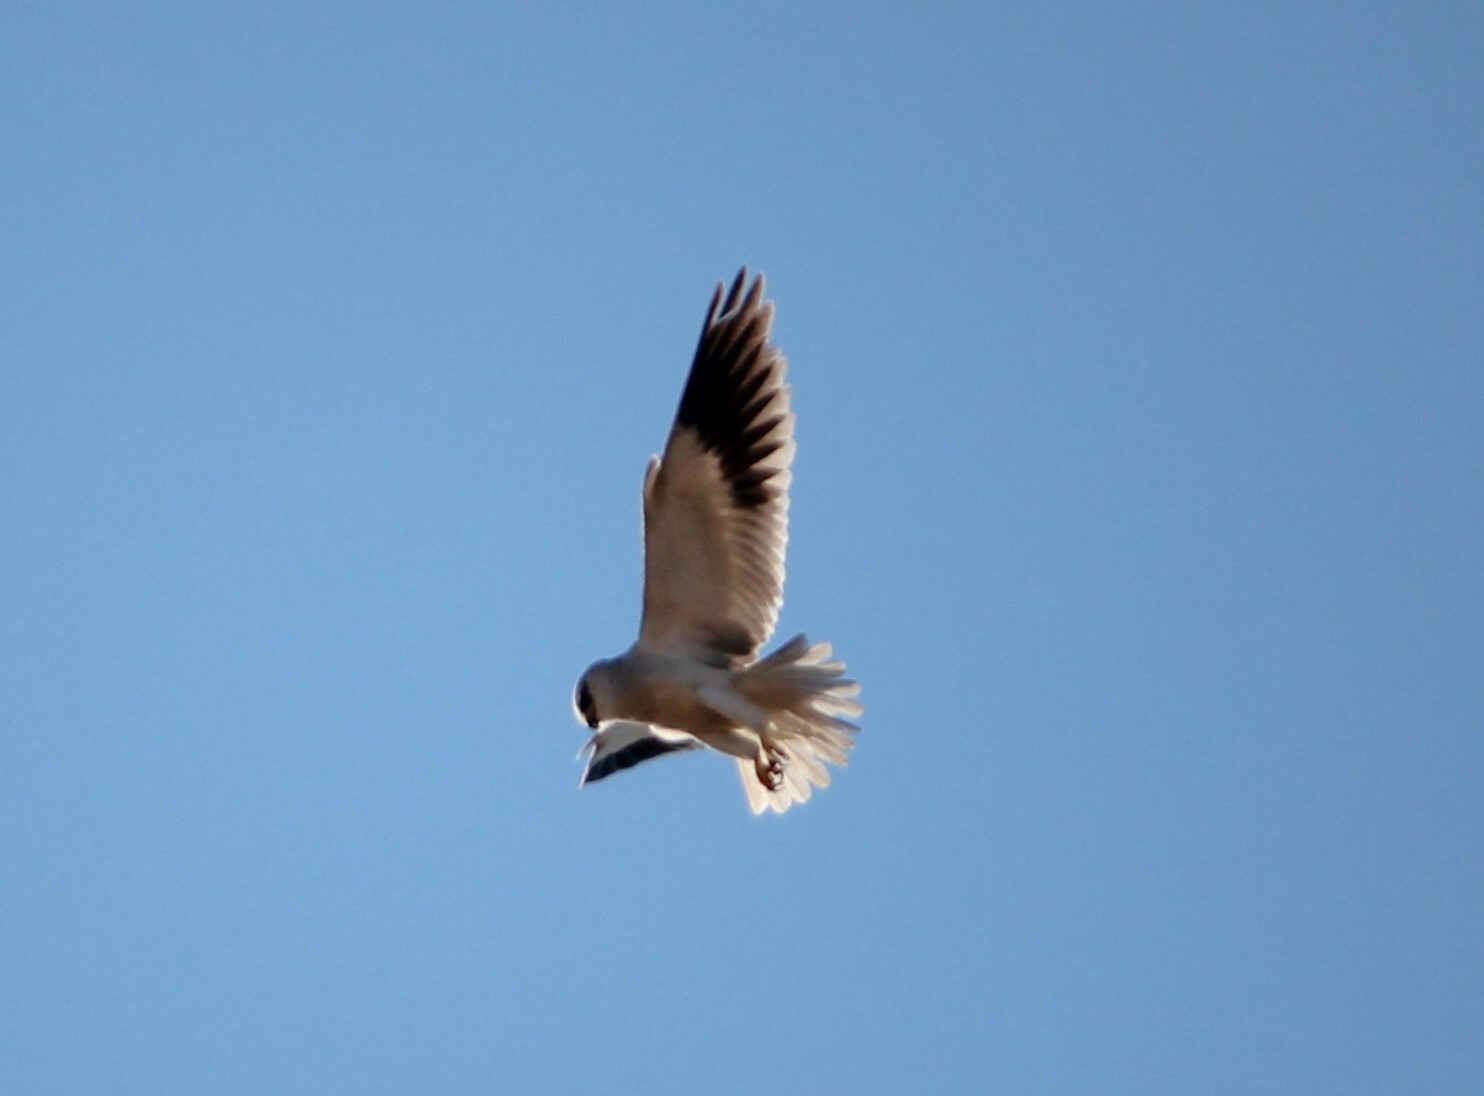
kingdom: Animalia
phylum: Chordata
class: Aves
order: Accipitriformes
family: Accipitridae
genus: Elanus
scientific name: Elanus caeruleus
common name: Black-winged kite
